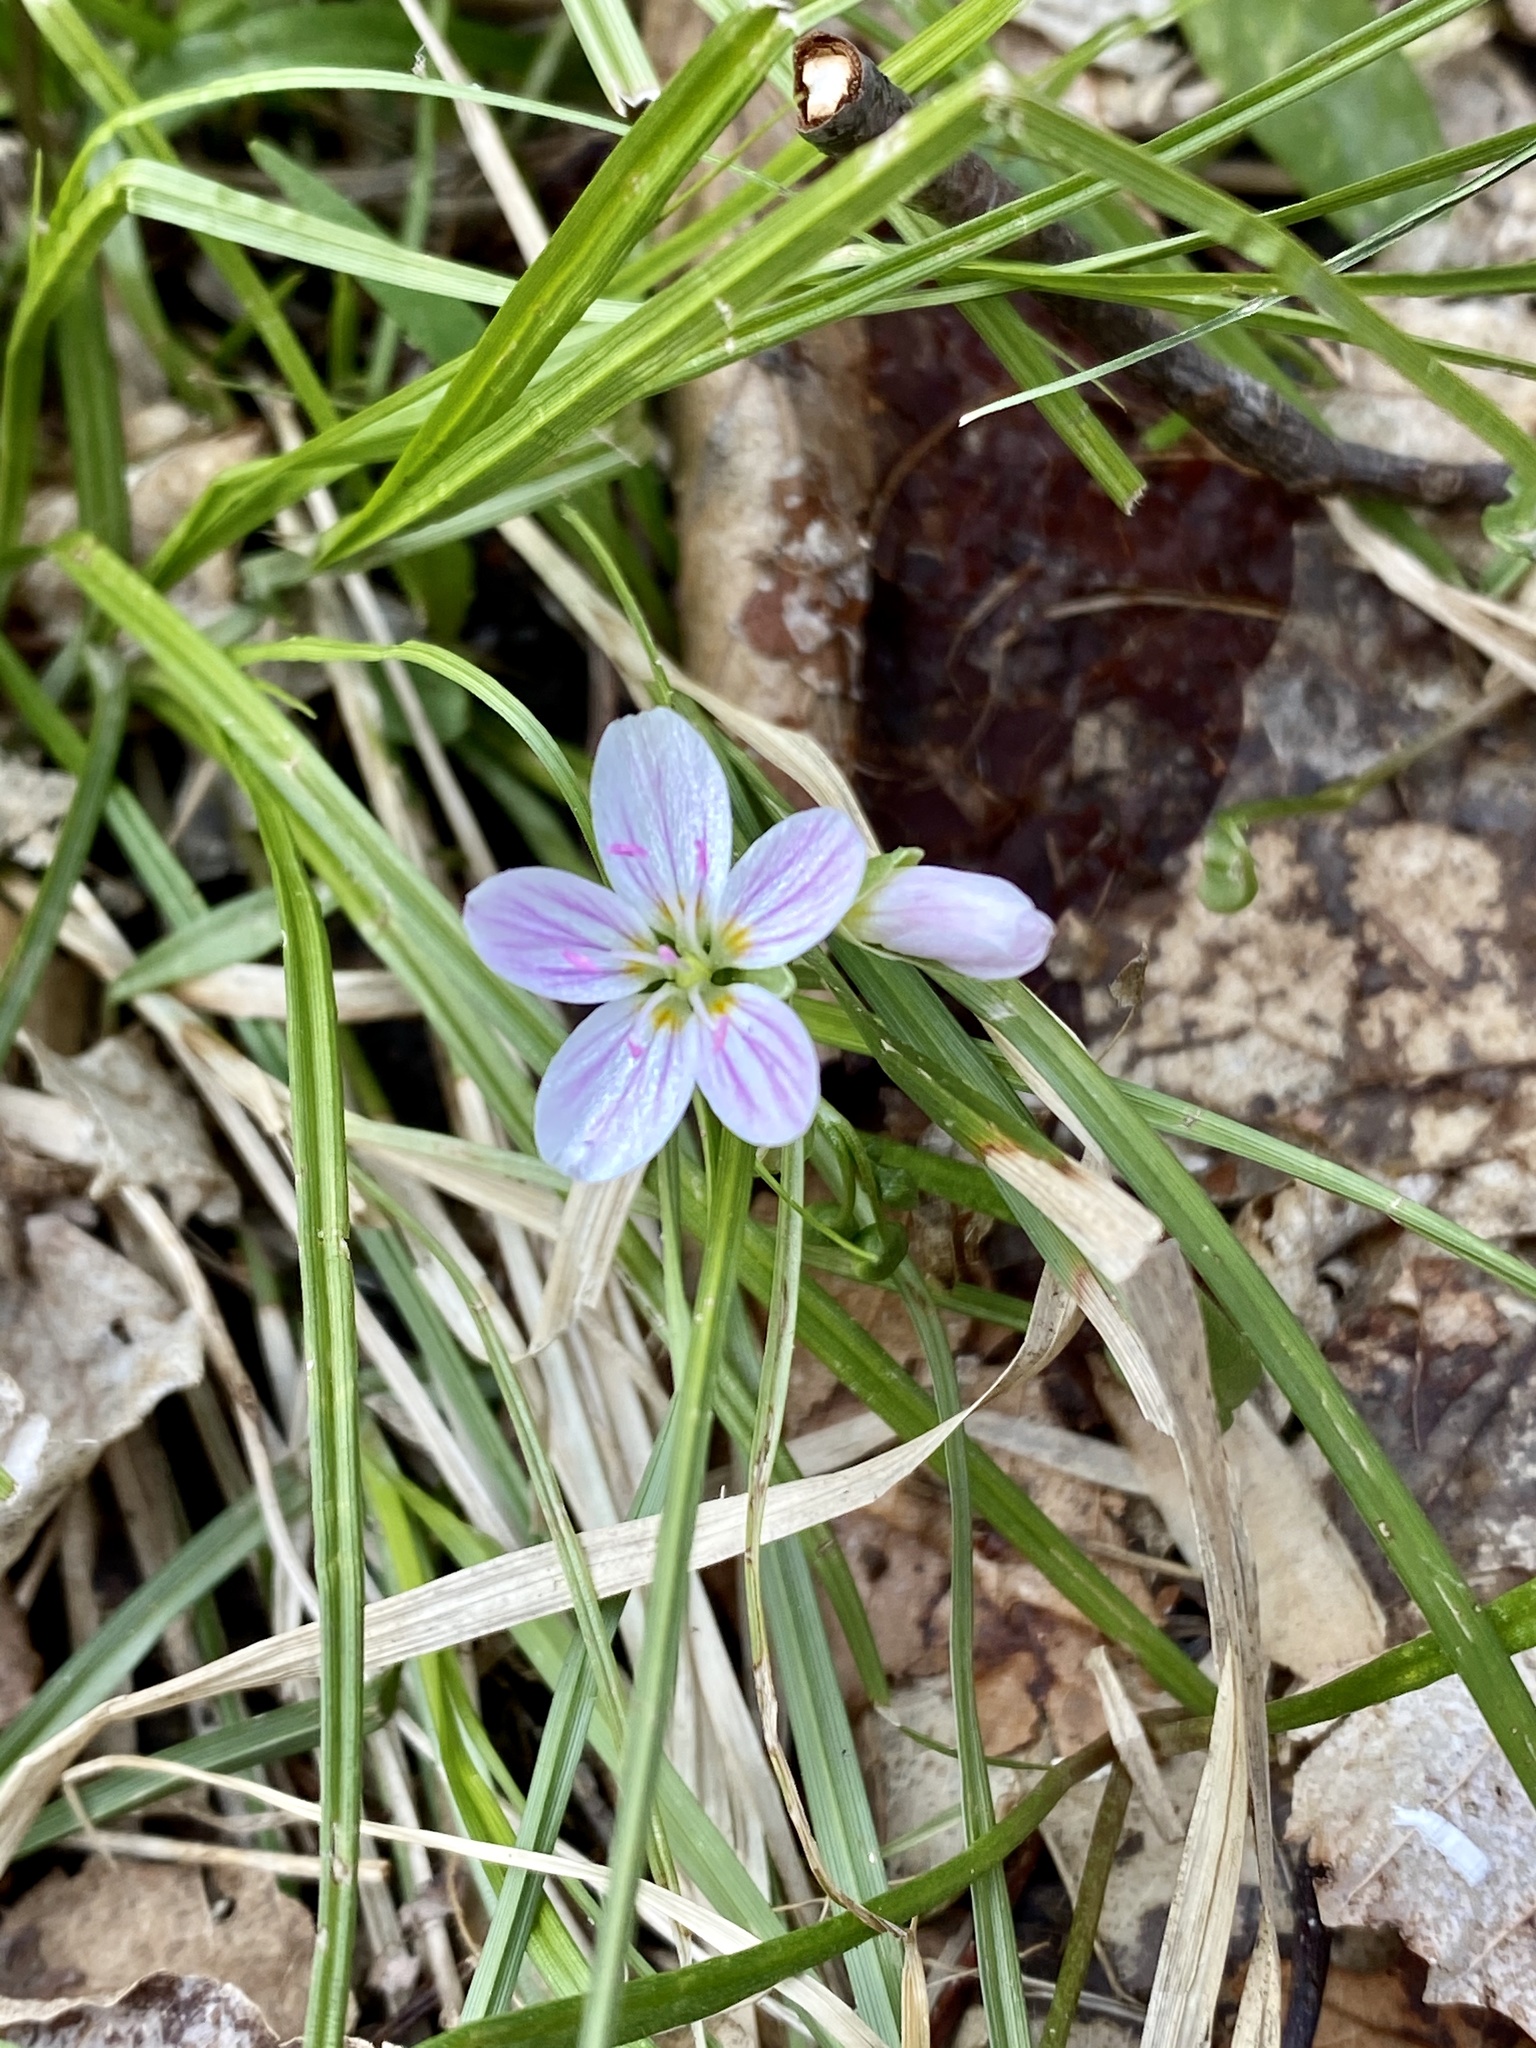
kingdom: Plantae
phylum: Tracheophyta
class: Magnoliopsida
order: Caryophyllales
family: Montiaceae
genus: Claytonia
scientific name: Claytonia virginica
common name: Virginia springbeauty
